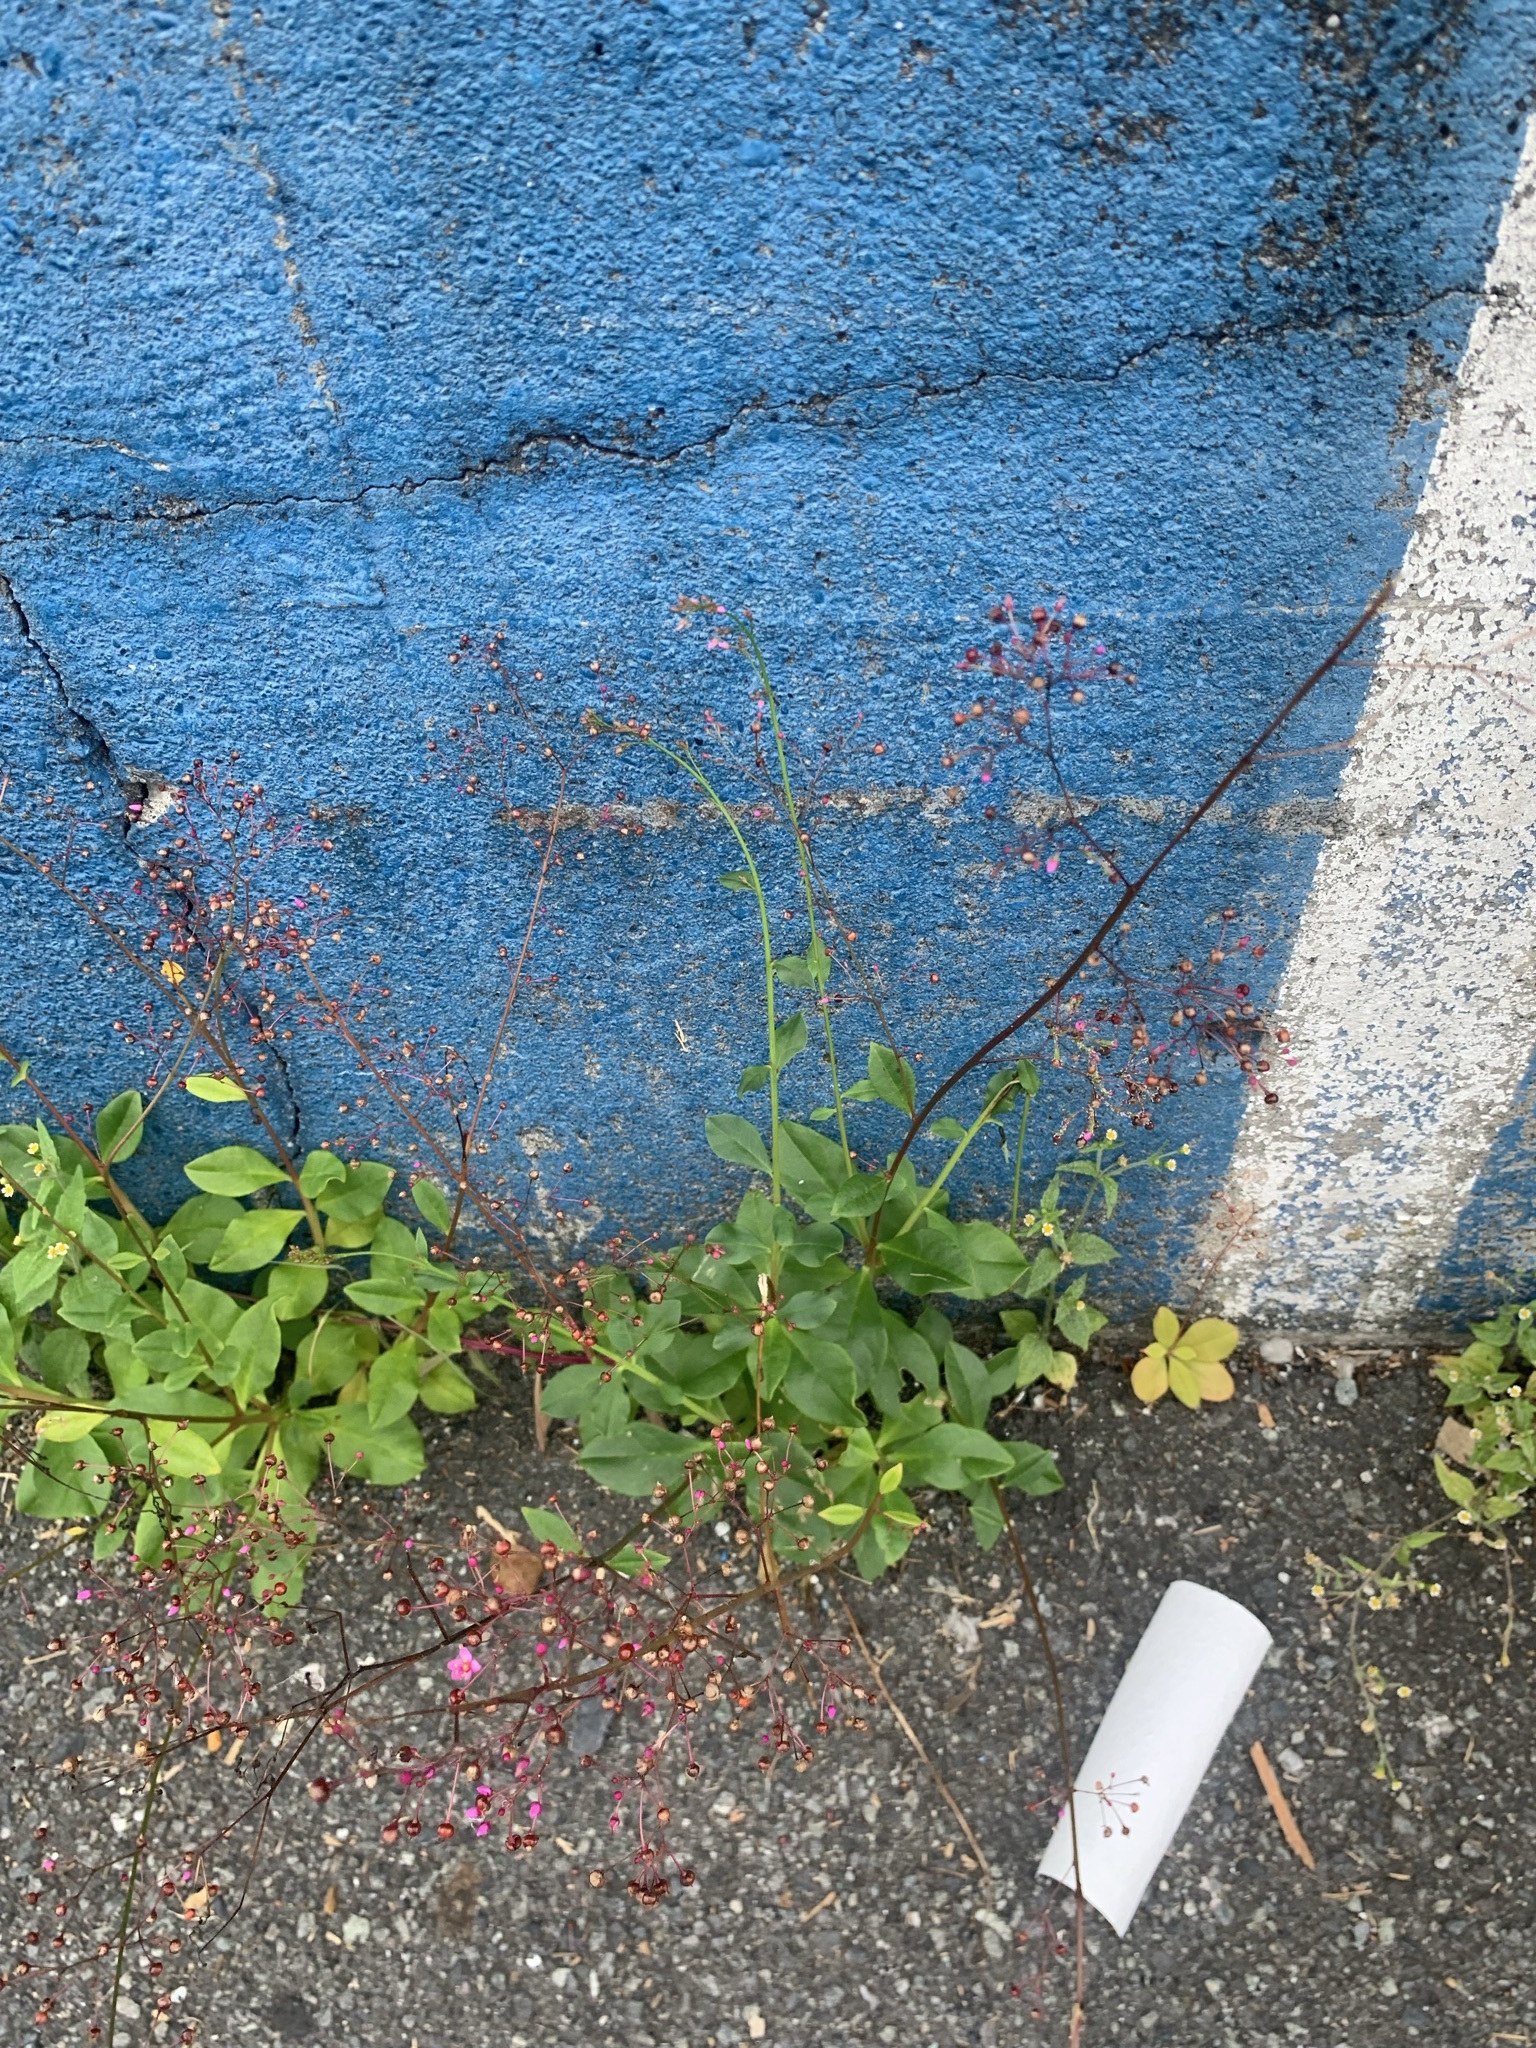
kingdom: Plantae
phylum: Tracheophyta
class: Magnoliopsida
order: Caryophyllales
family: Talinaceae
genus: Talinum
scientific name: Talinum paniculatum
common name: Jewels of opar
